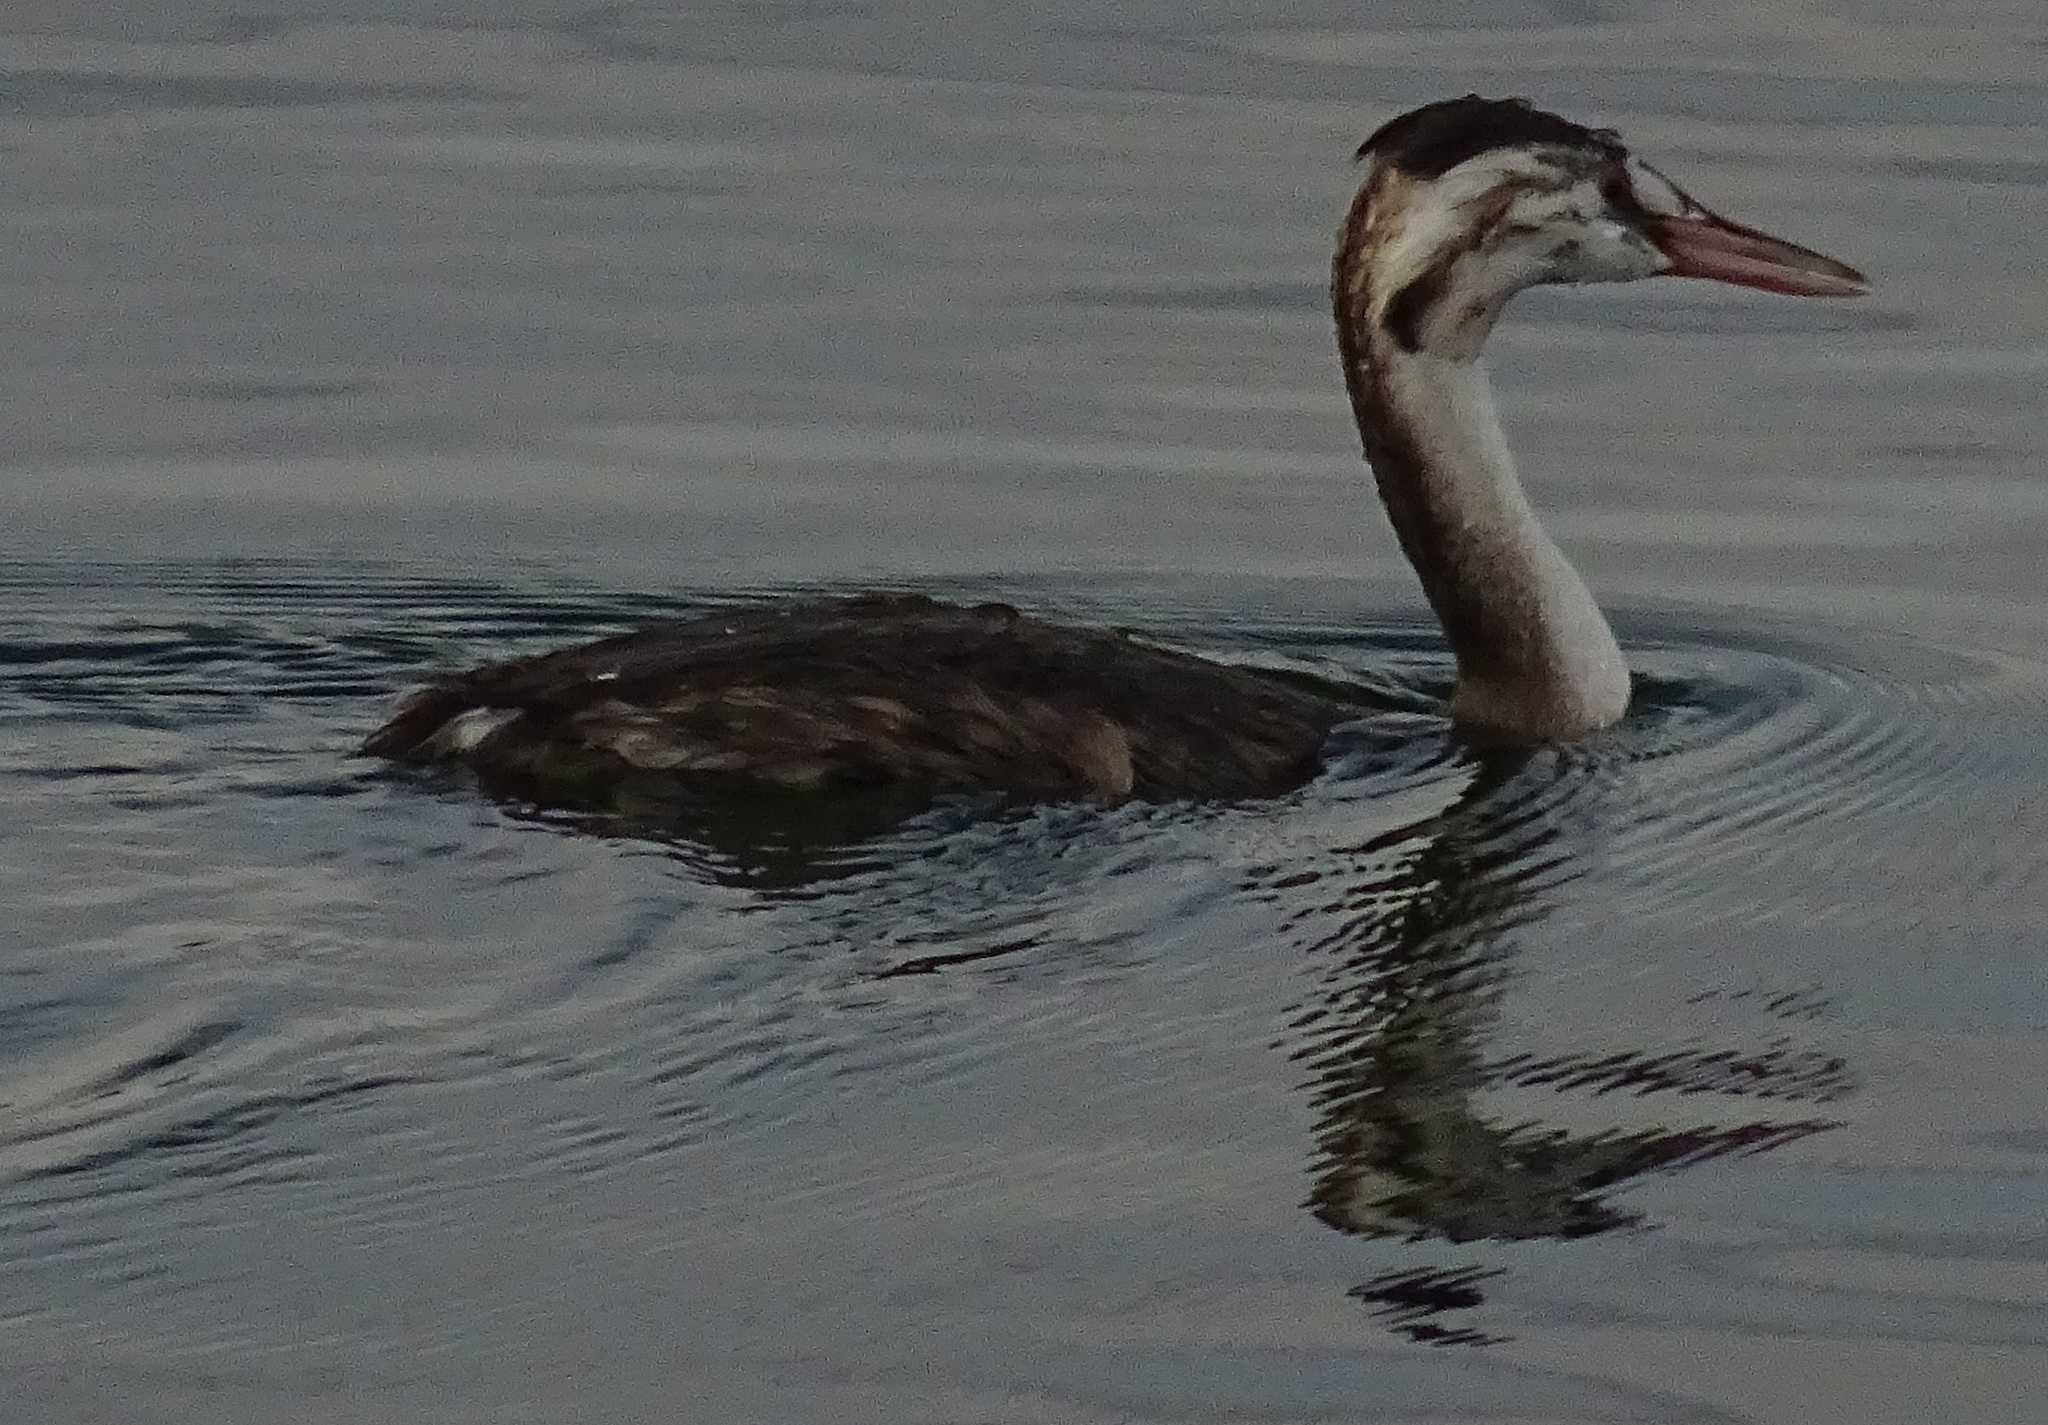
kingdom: Animalia
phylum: Chordata
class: Aves
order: Podicipediformes
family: Podicipedidae
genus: Podiceps
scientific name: Podiceps cristatus
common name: Great crested grebe
